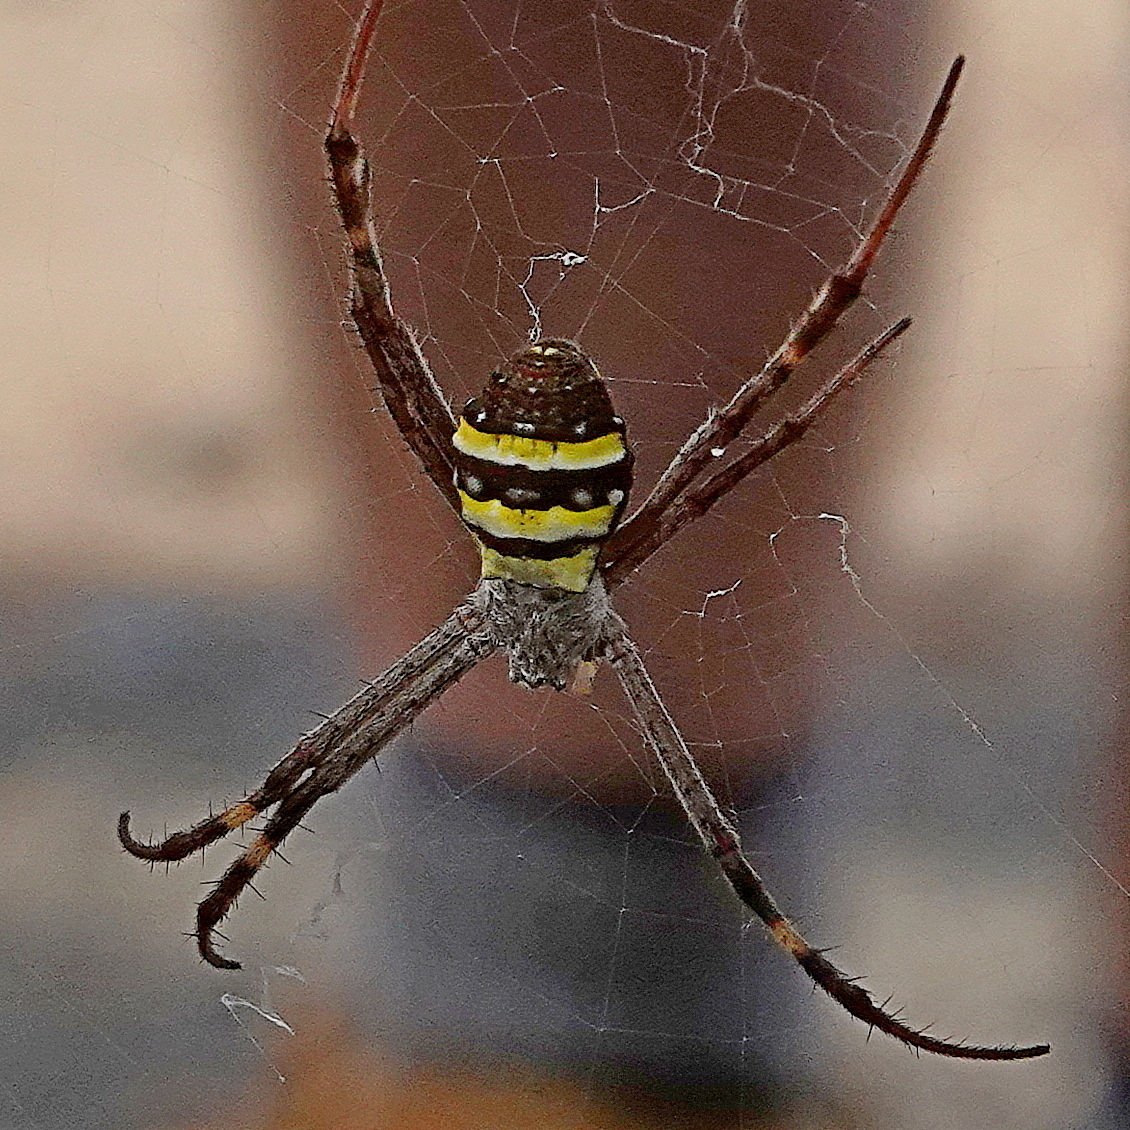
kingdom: Animalia
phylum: Arthropoda
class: Arachnida
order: Araneae
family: Araneidae
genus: Argiope
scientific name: Argiope keyserlingi
